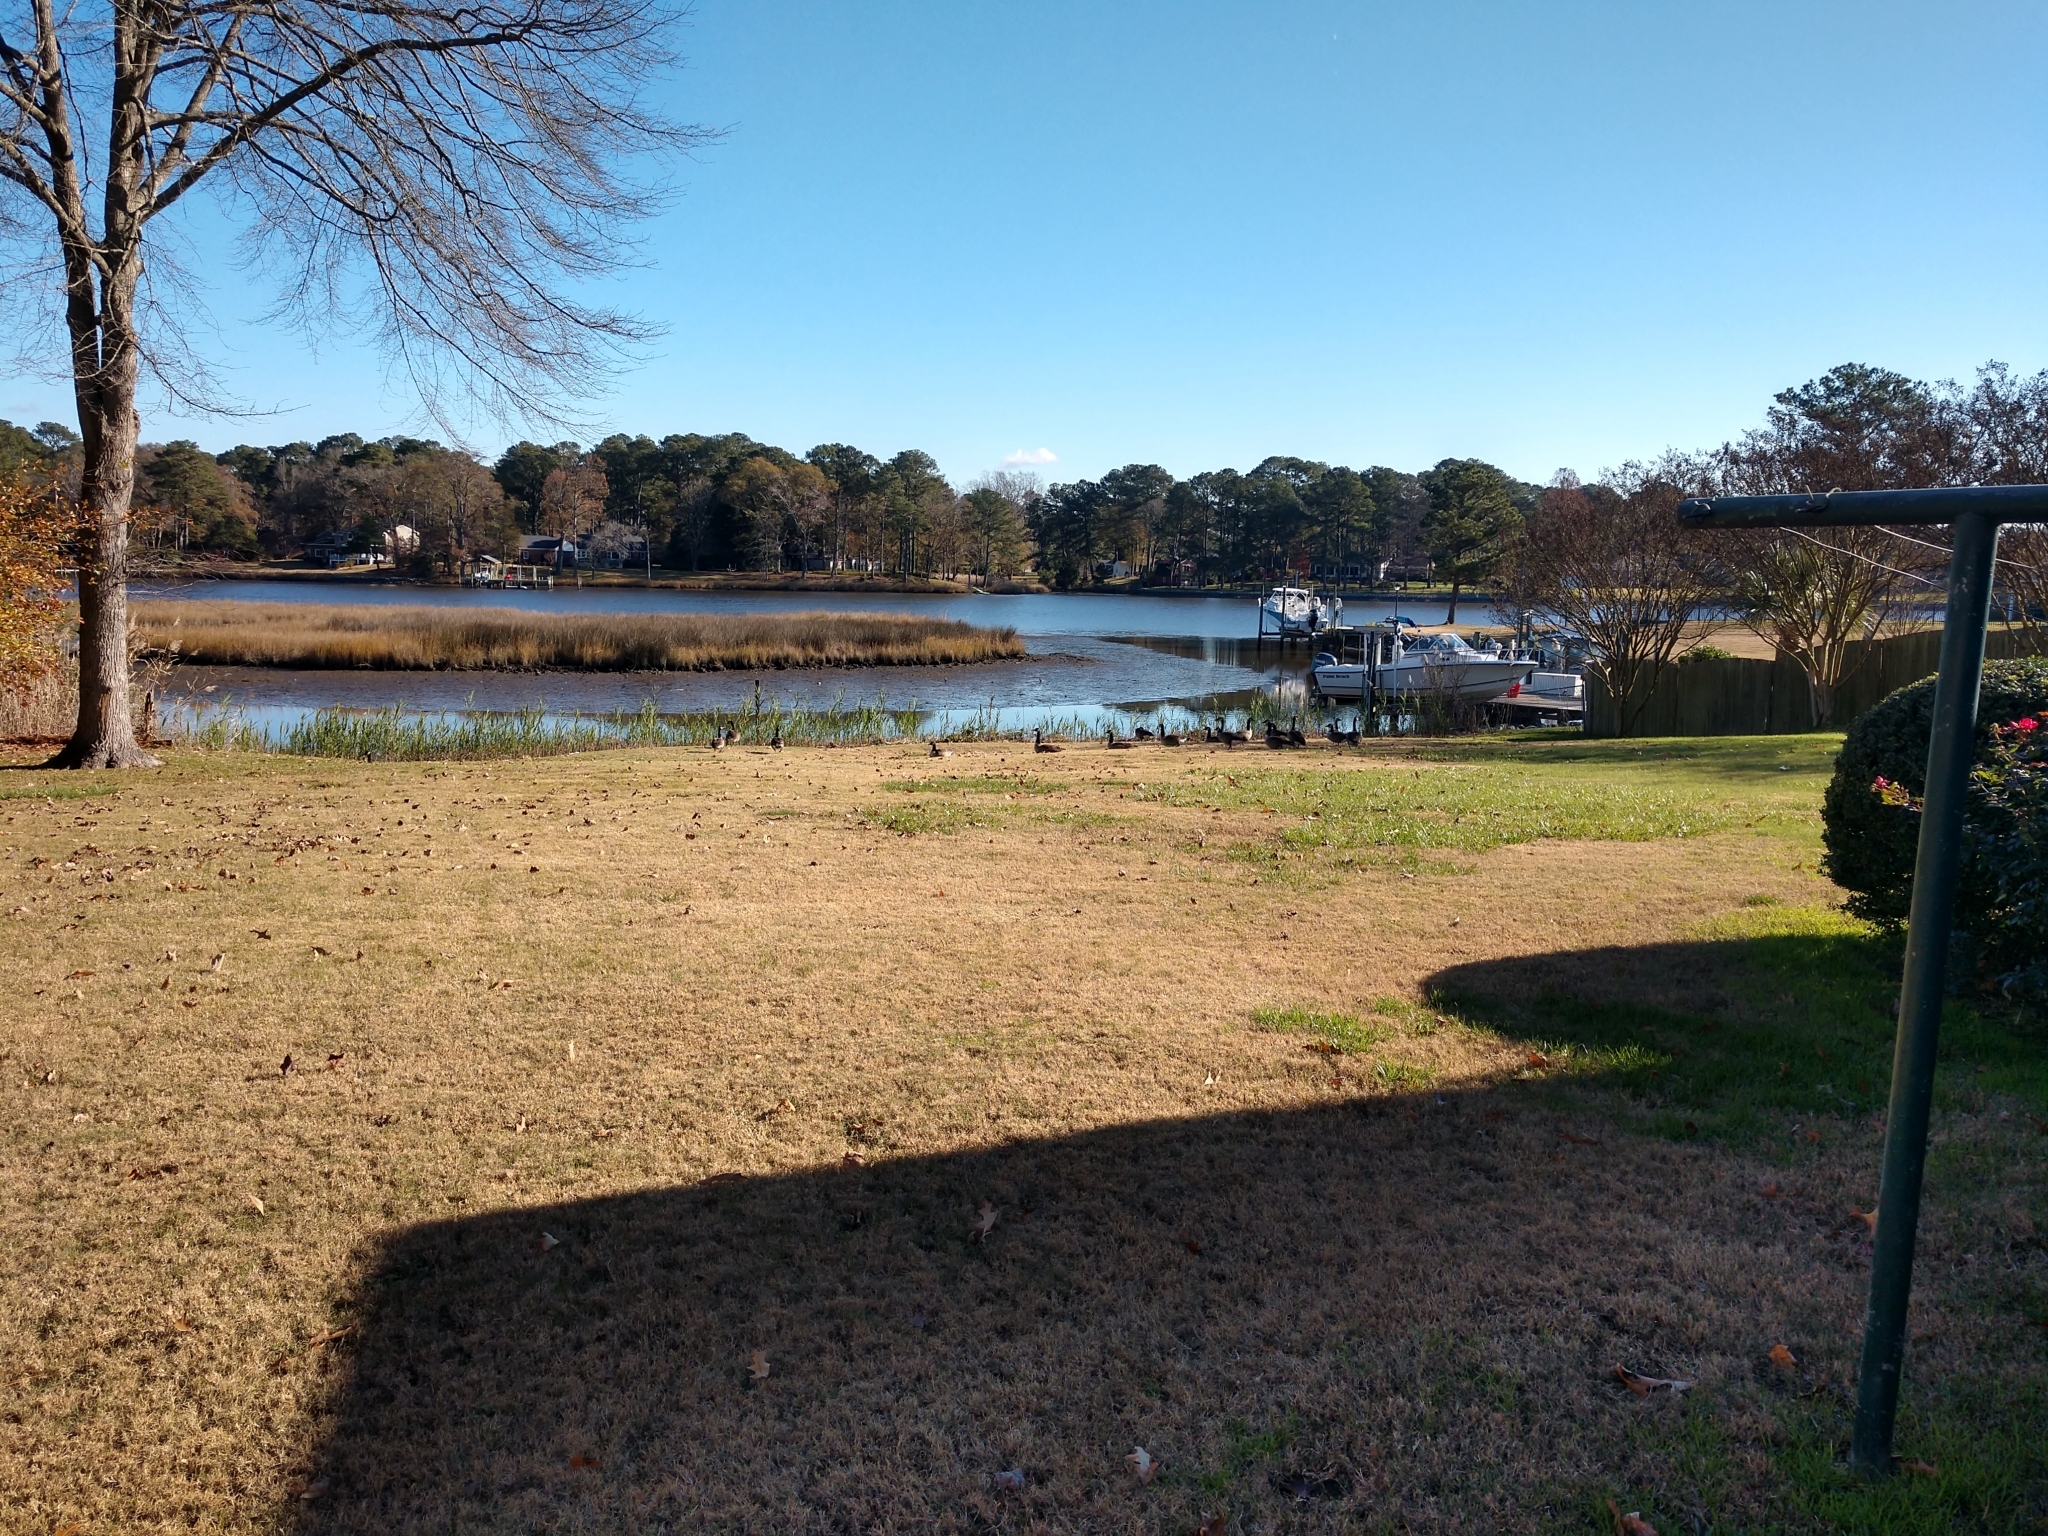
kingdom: Animalia
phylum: Chordata
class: Aves
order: Anseriformes
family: Anatidae
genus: Branta
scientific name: Branta canadensis
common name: Canada goose
